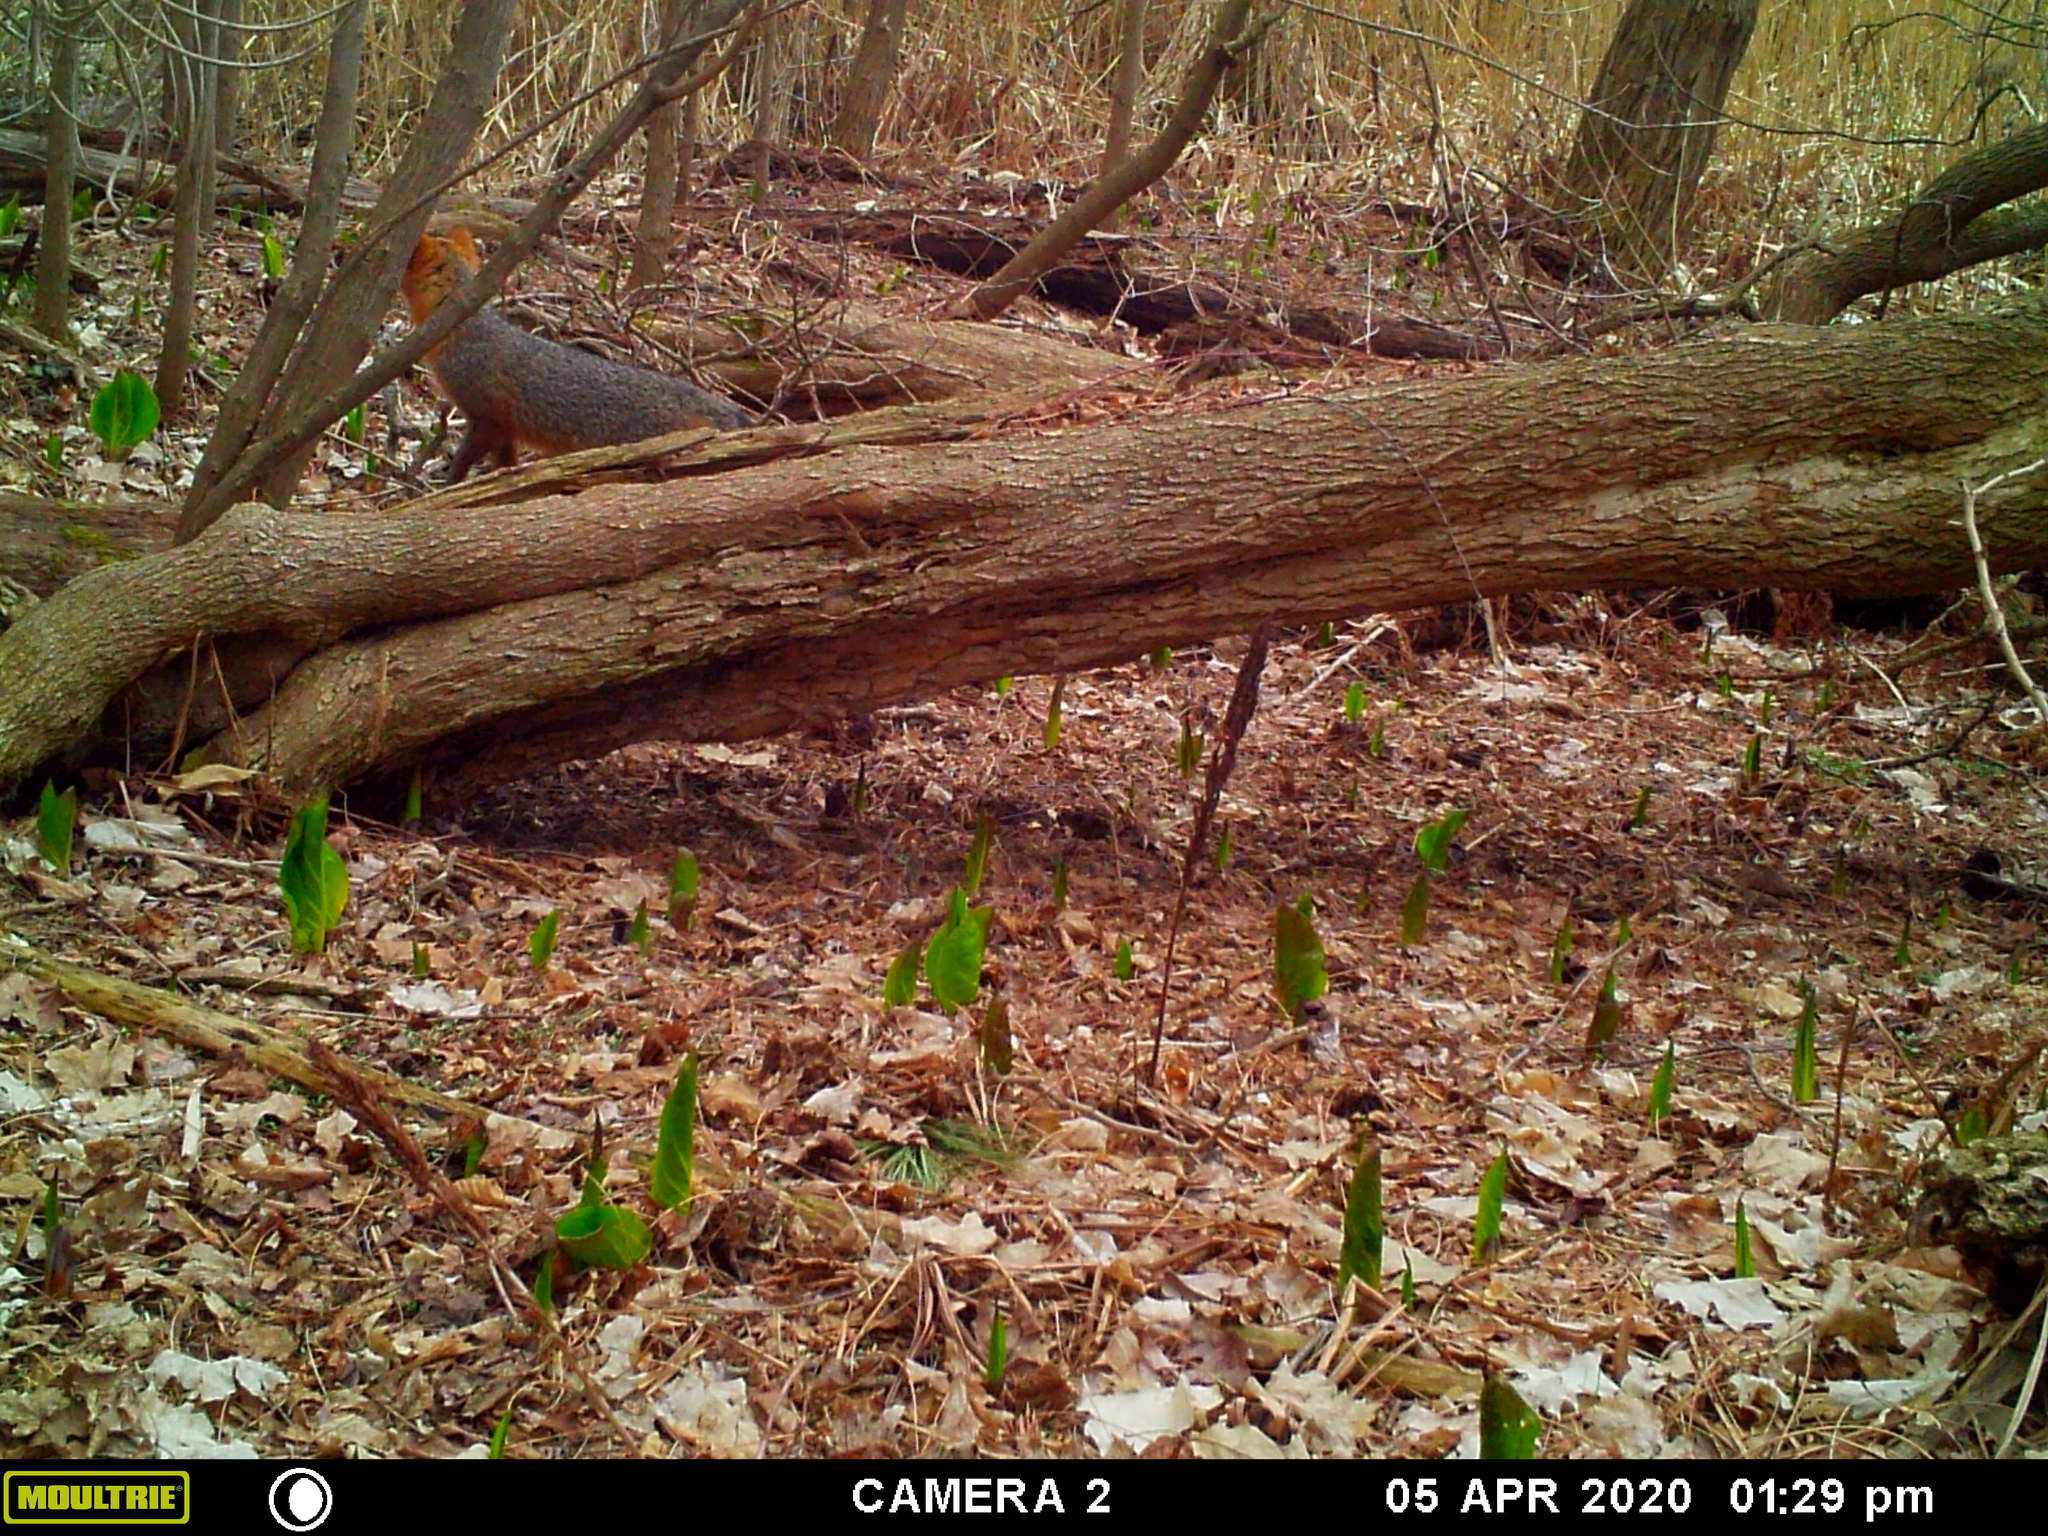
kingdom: Animalia
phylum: Chordata
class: Mammalia
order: Carnivora
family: Canidae
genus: Urocyon
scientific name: Urocyon cinereoargenteus
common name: Gray fox
